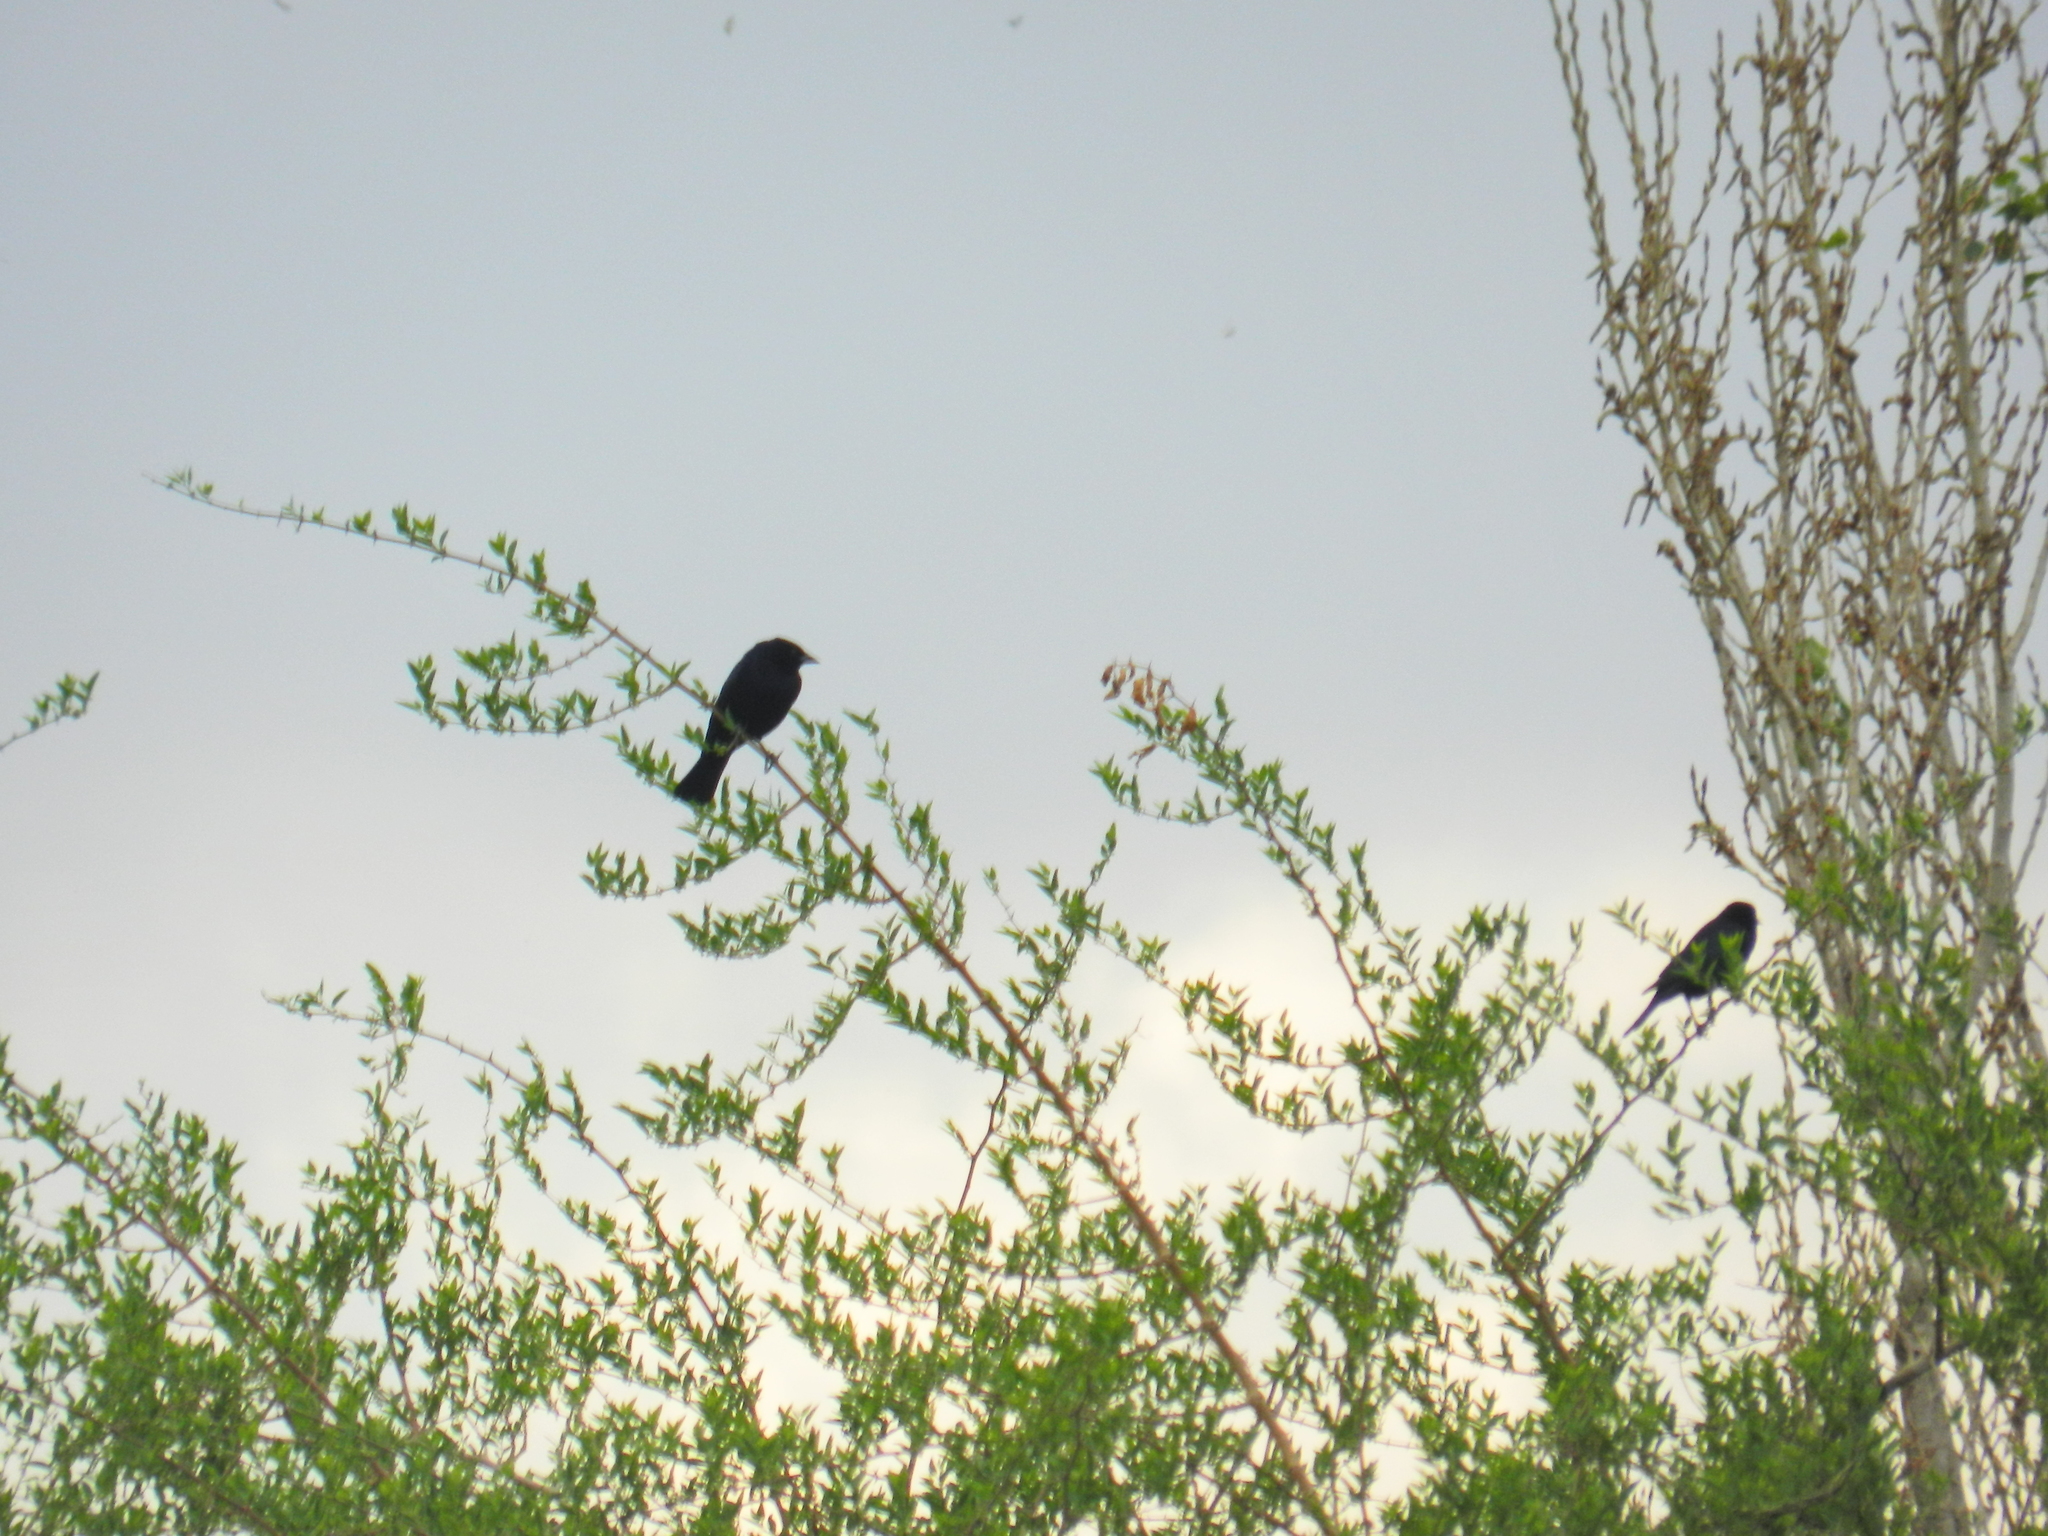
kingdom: Animalia
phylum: Chordata
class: Aves
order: Passeriformes
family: Icteridae
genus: Molothrus
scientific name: Molothrus bonariensis
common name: Shiny cowbird
